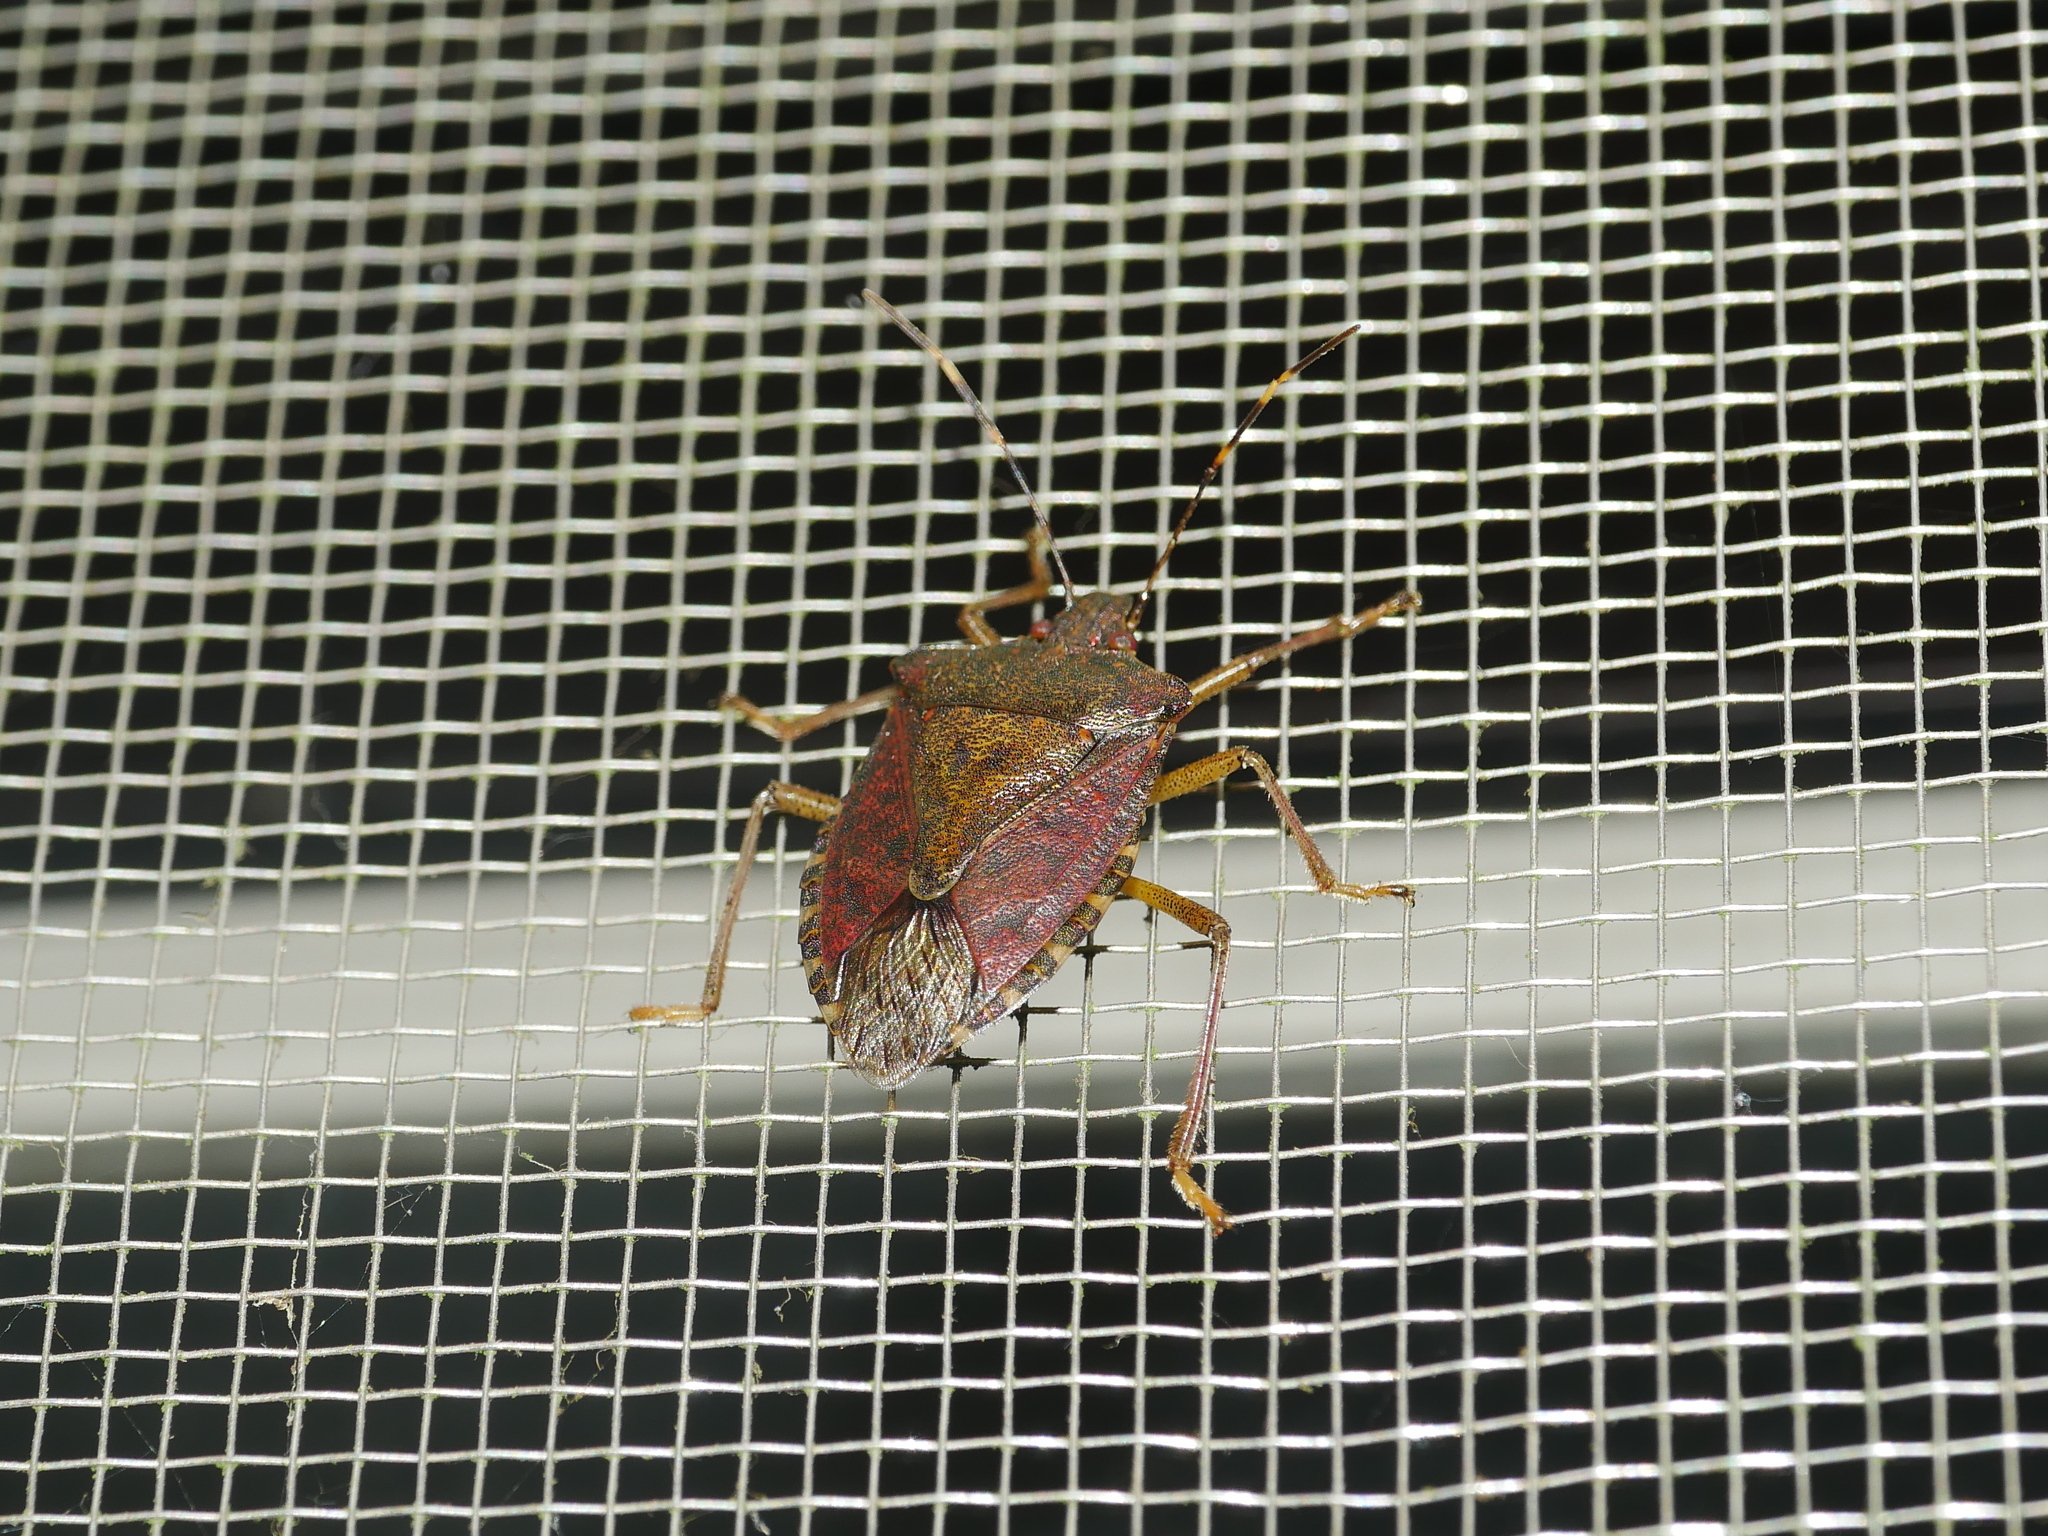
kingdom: Animalia
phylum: Arthropoda
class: Insecta
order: Hemiptera
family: Pentatomidae
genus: Halyomorpha
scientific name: Halyomorpha halys
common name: Brown marmorated stink bug
